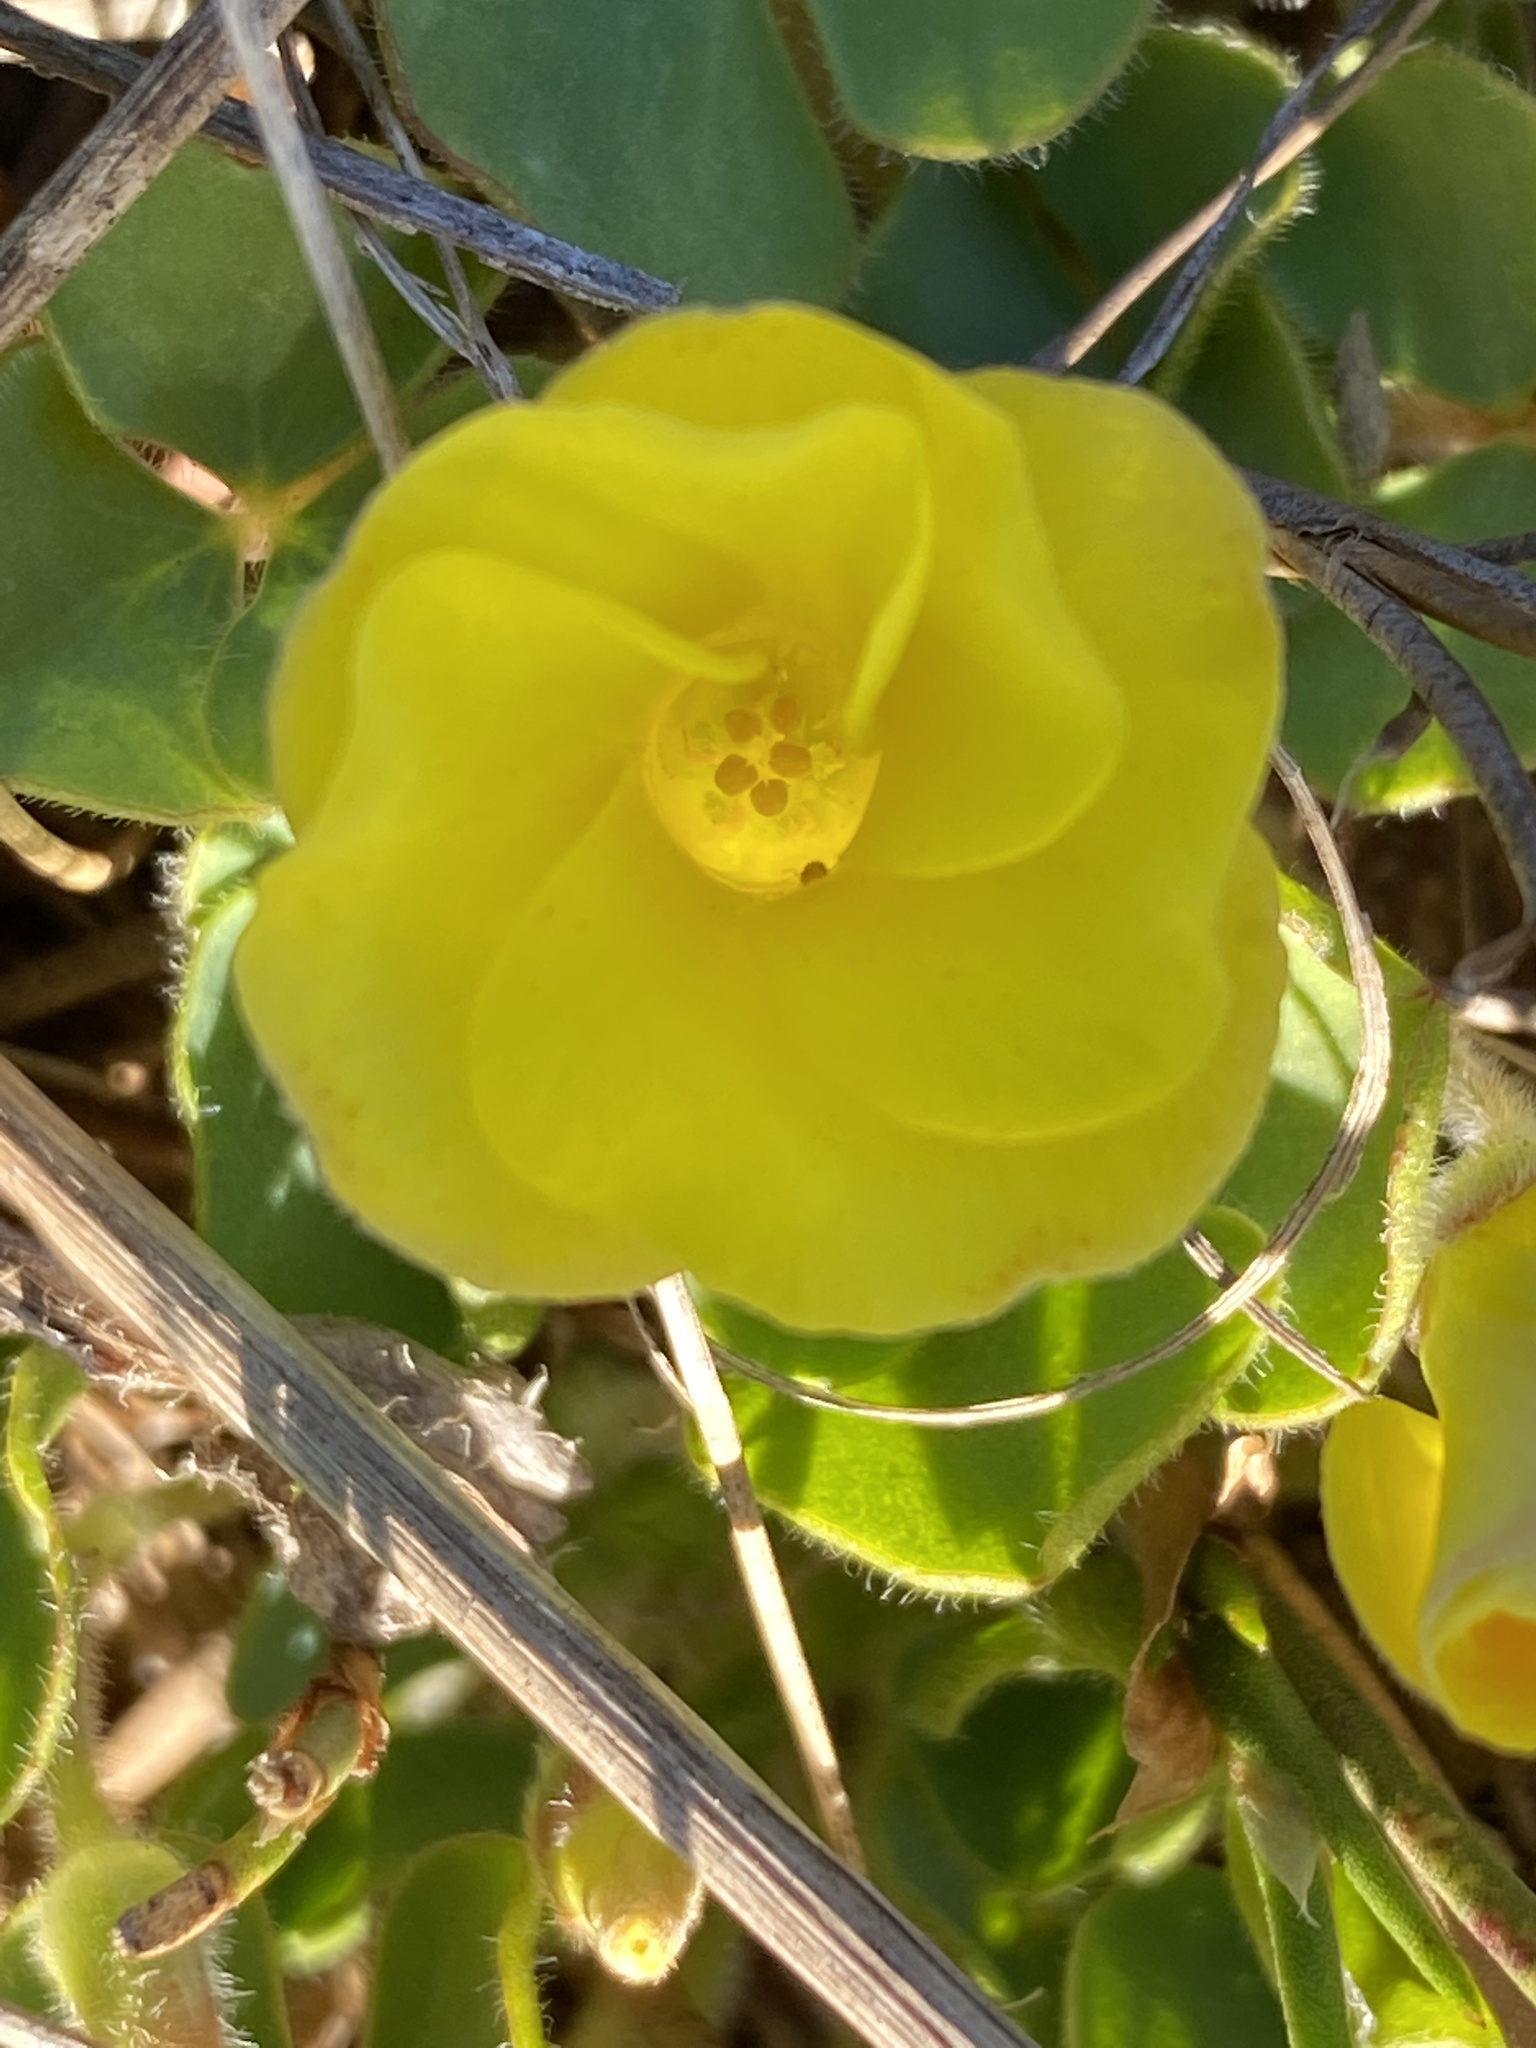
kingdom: Plantae
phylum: Tracheophyta
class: Magnoliopsida
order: Oxalidales
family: Oxalidaceae
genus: Oxalis
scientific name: Oxalis luteola
